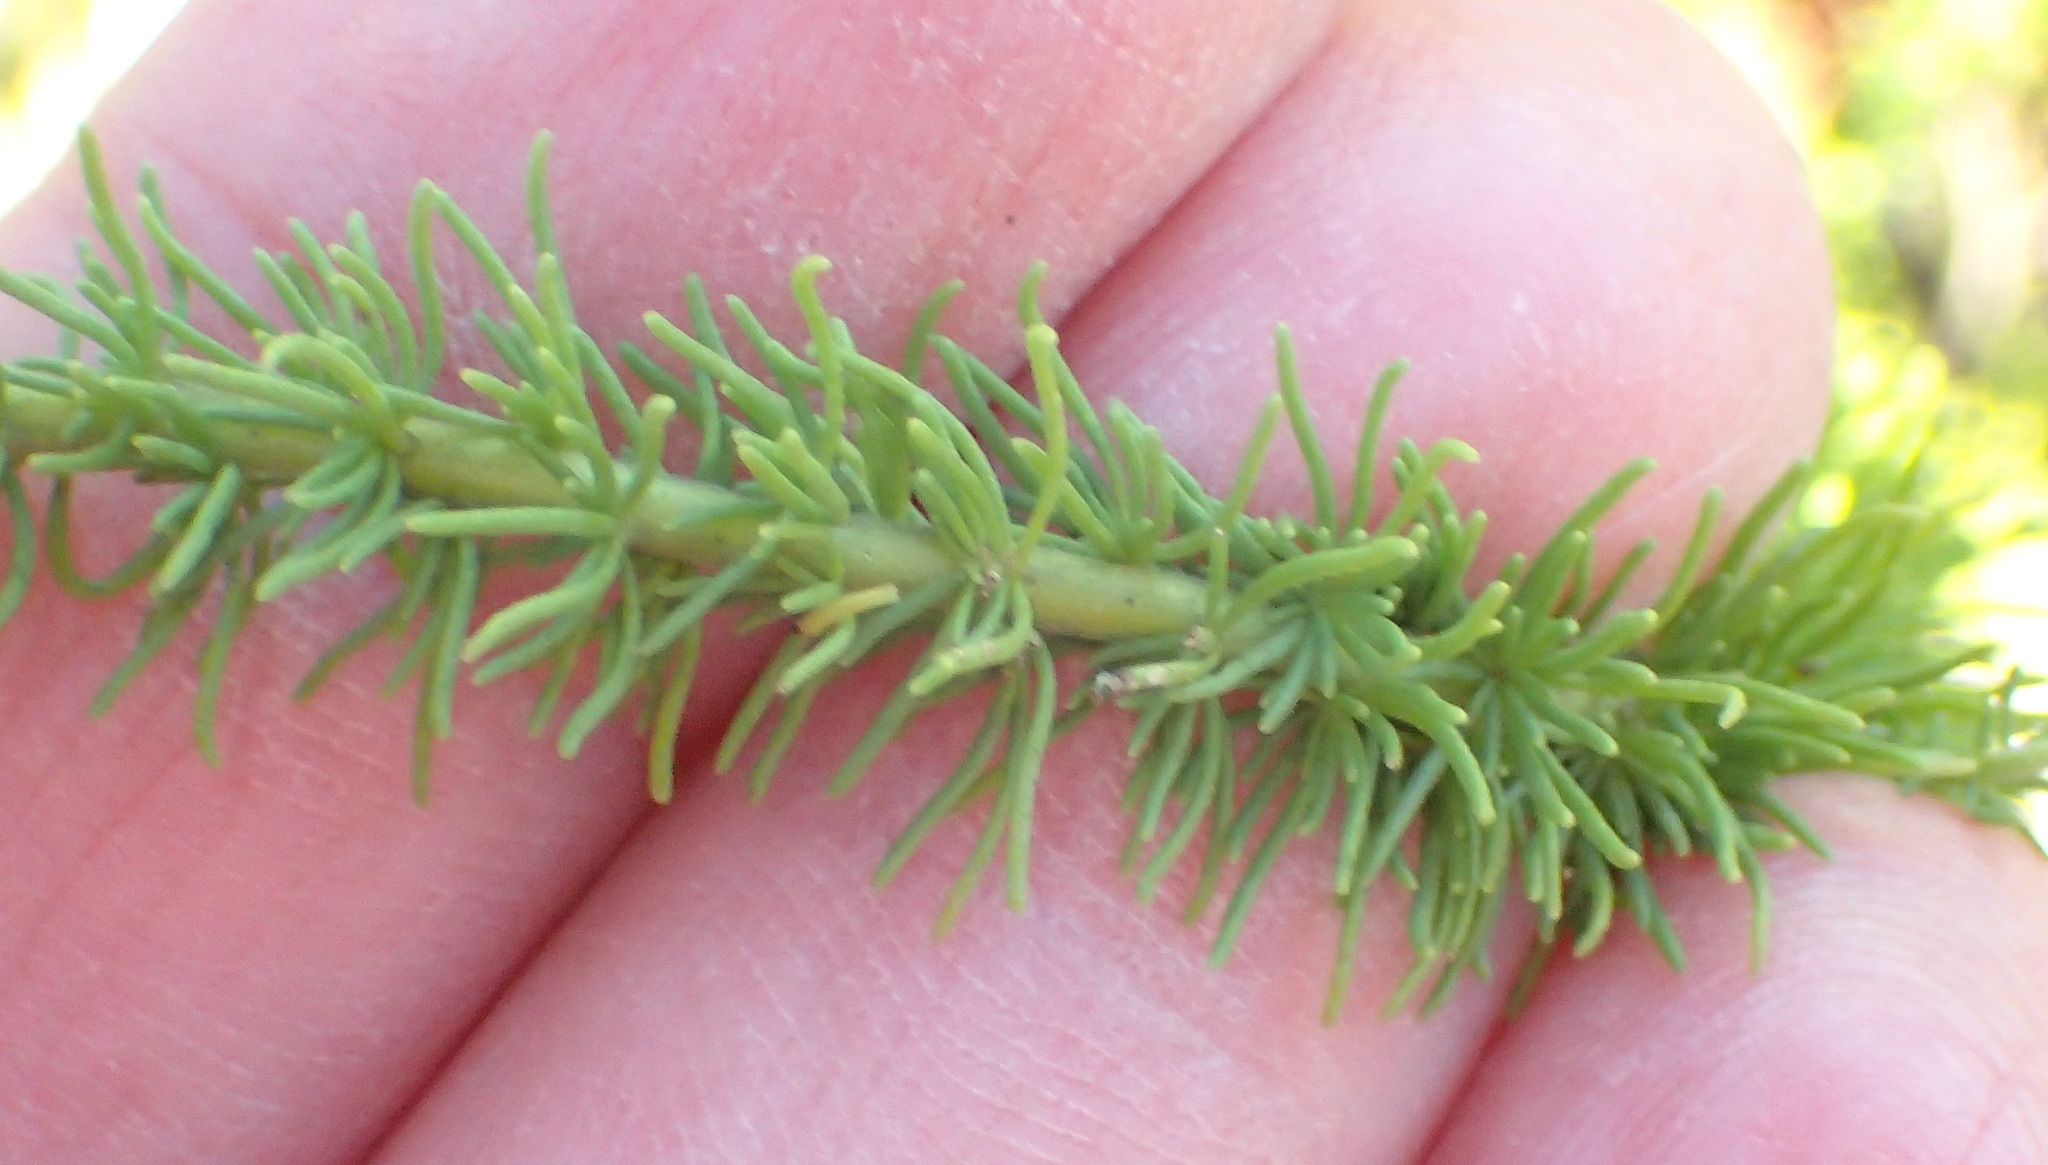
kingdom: Plantae
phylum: Tracheophyta
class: Magnoliopsida
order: Lamiales
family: Scrophulariaceae
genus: Selago
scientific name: Selago corymbosa
